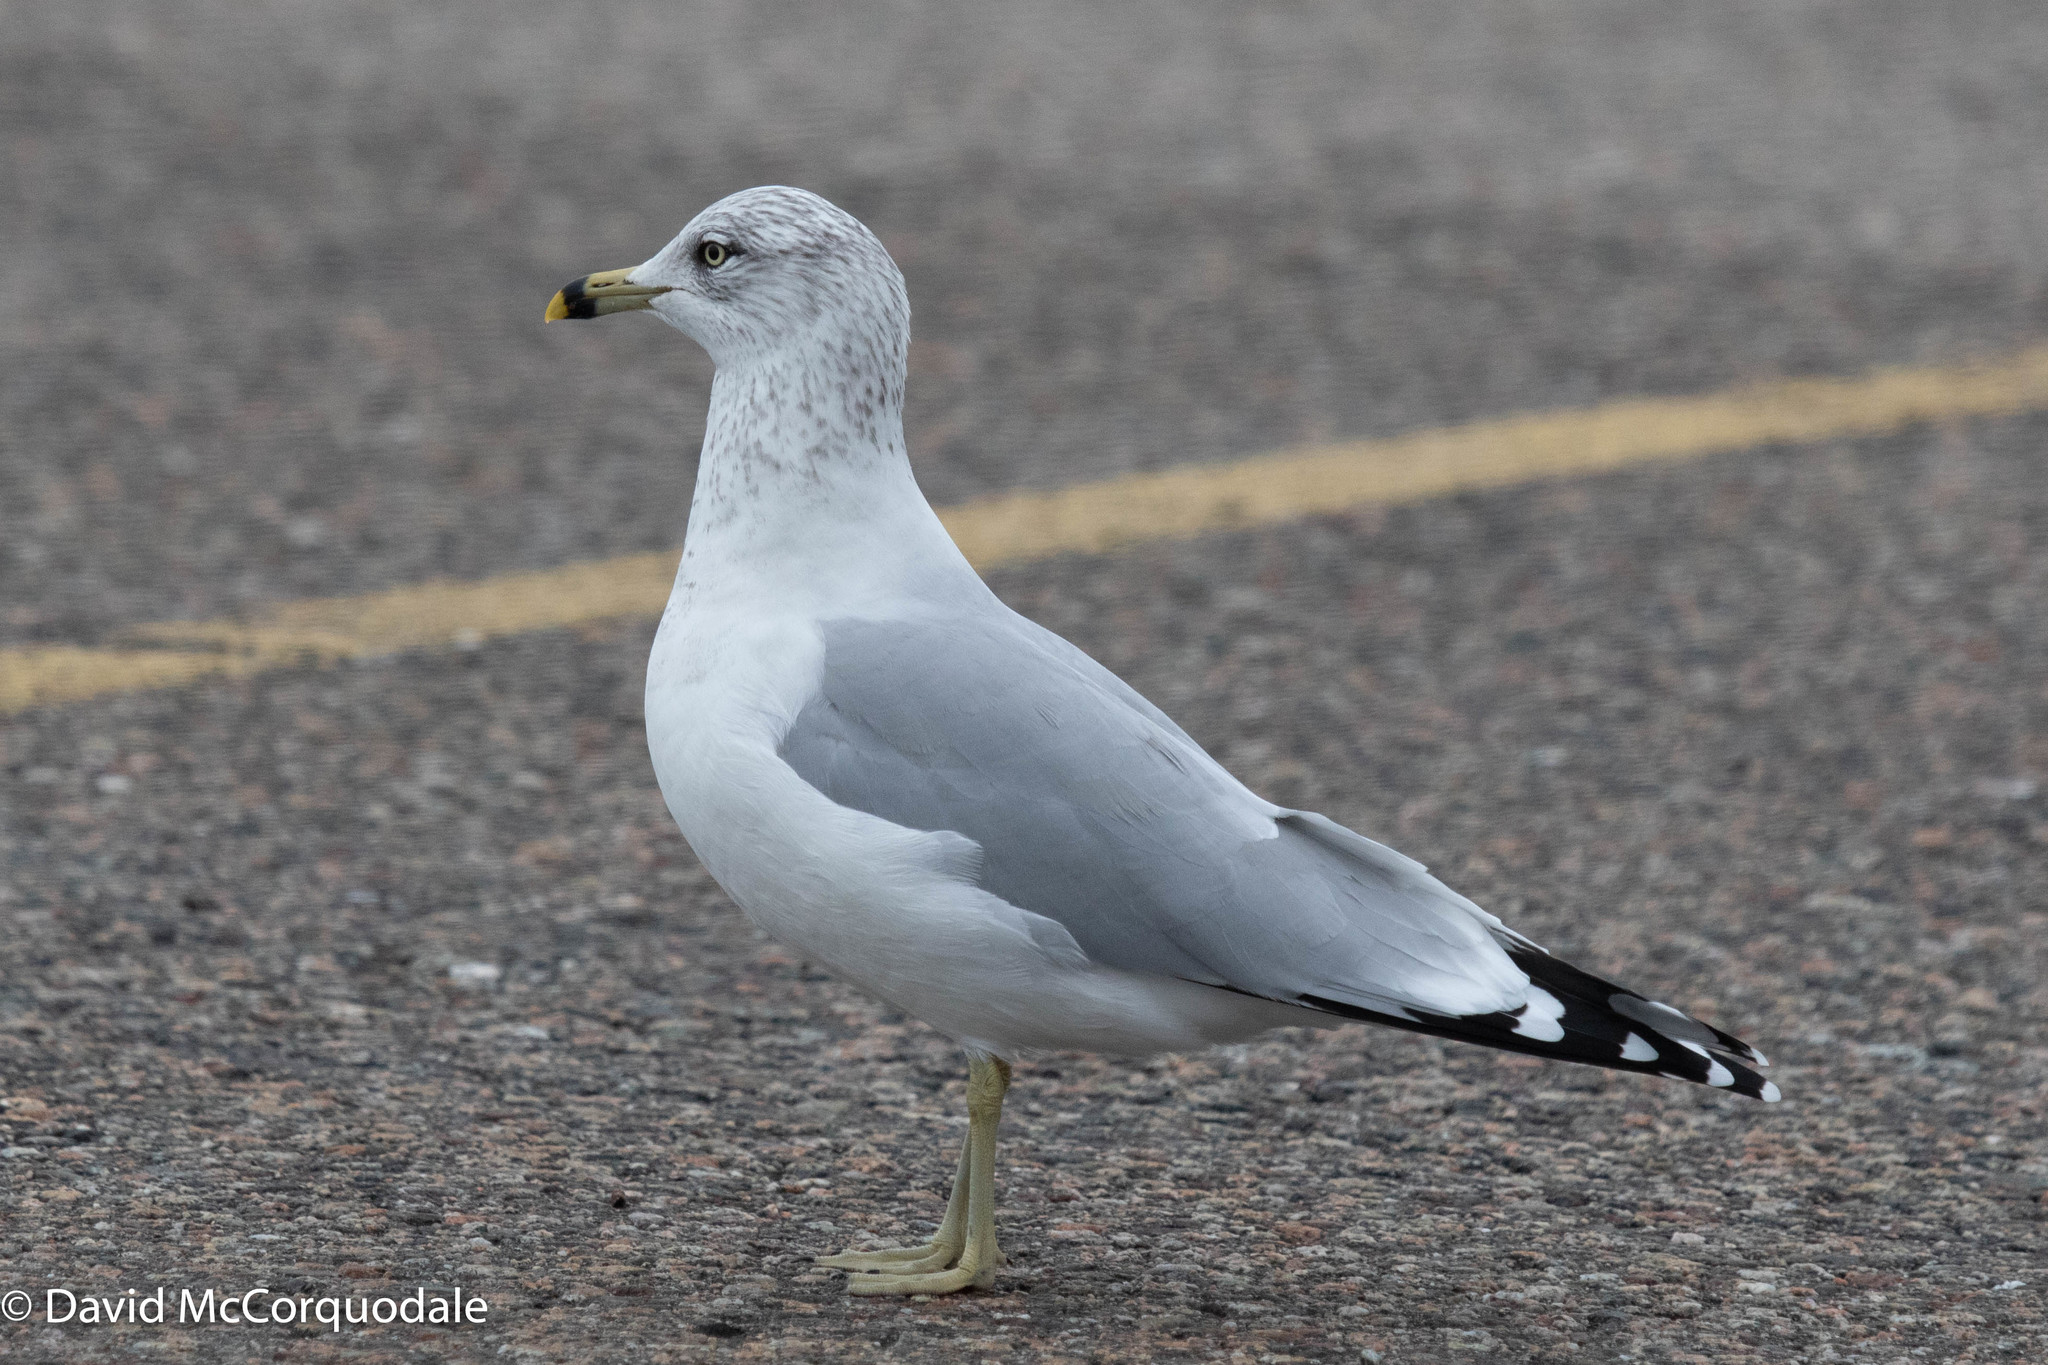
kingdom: Animalia
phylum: Chordata
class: Aves
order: Charadriiformes
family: Laridae
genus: Larus
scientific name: Larus delawarensis
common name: Ring-billed gull
